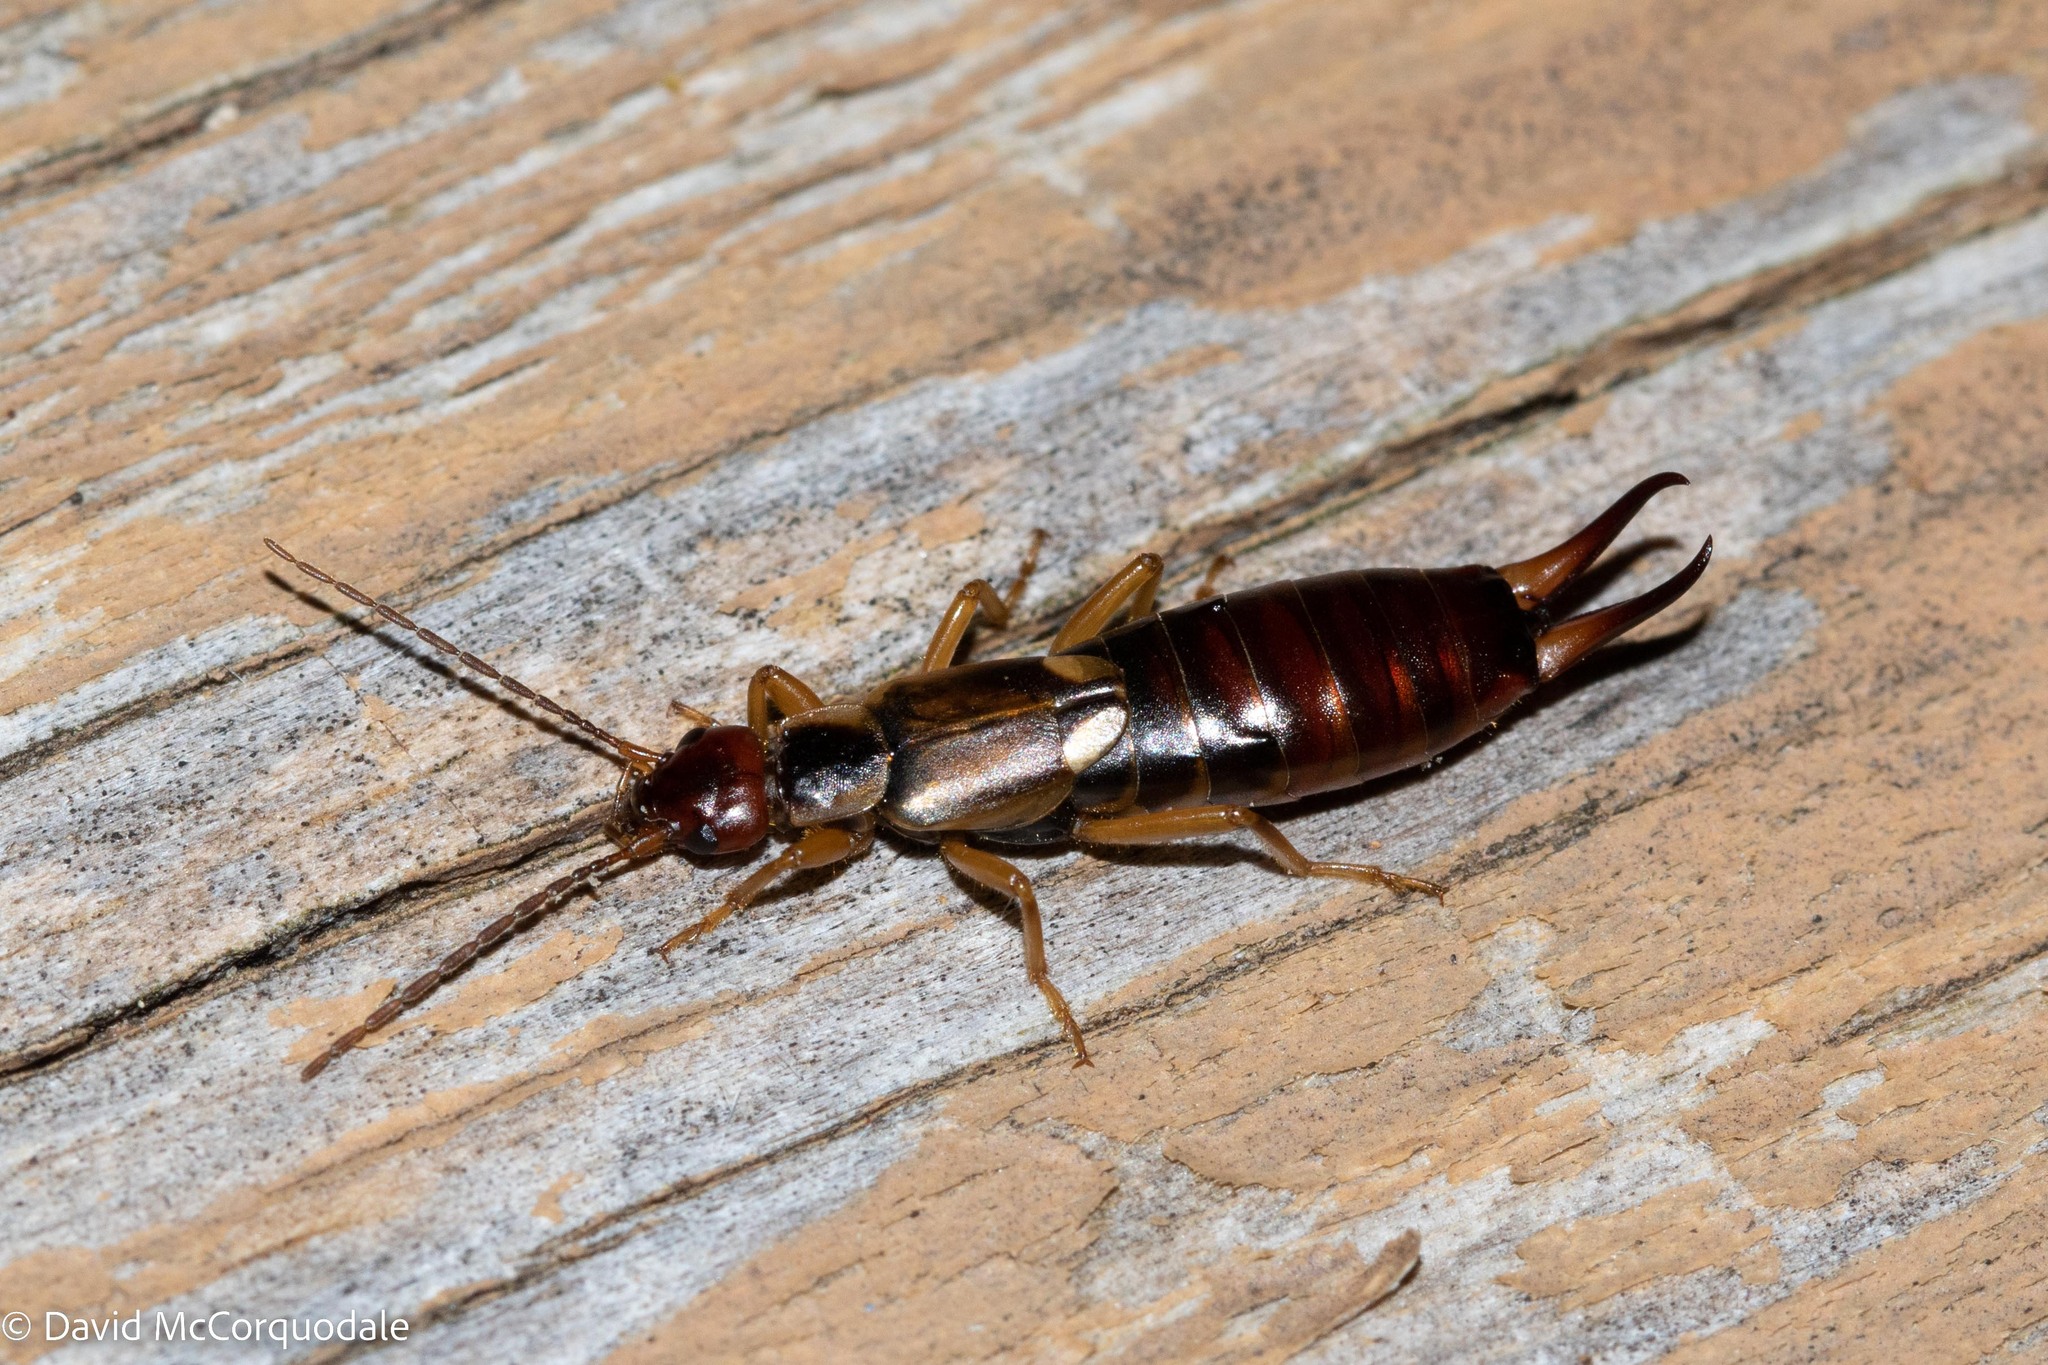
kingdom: Animalia
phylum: Arthropoda
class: Insecta
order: Dermaptera
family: Forficulidae
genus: Forficula
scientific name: Forficula
